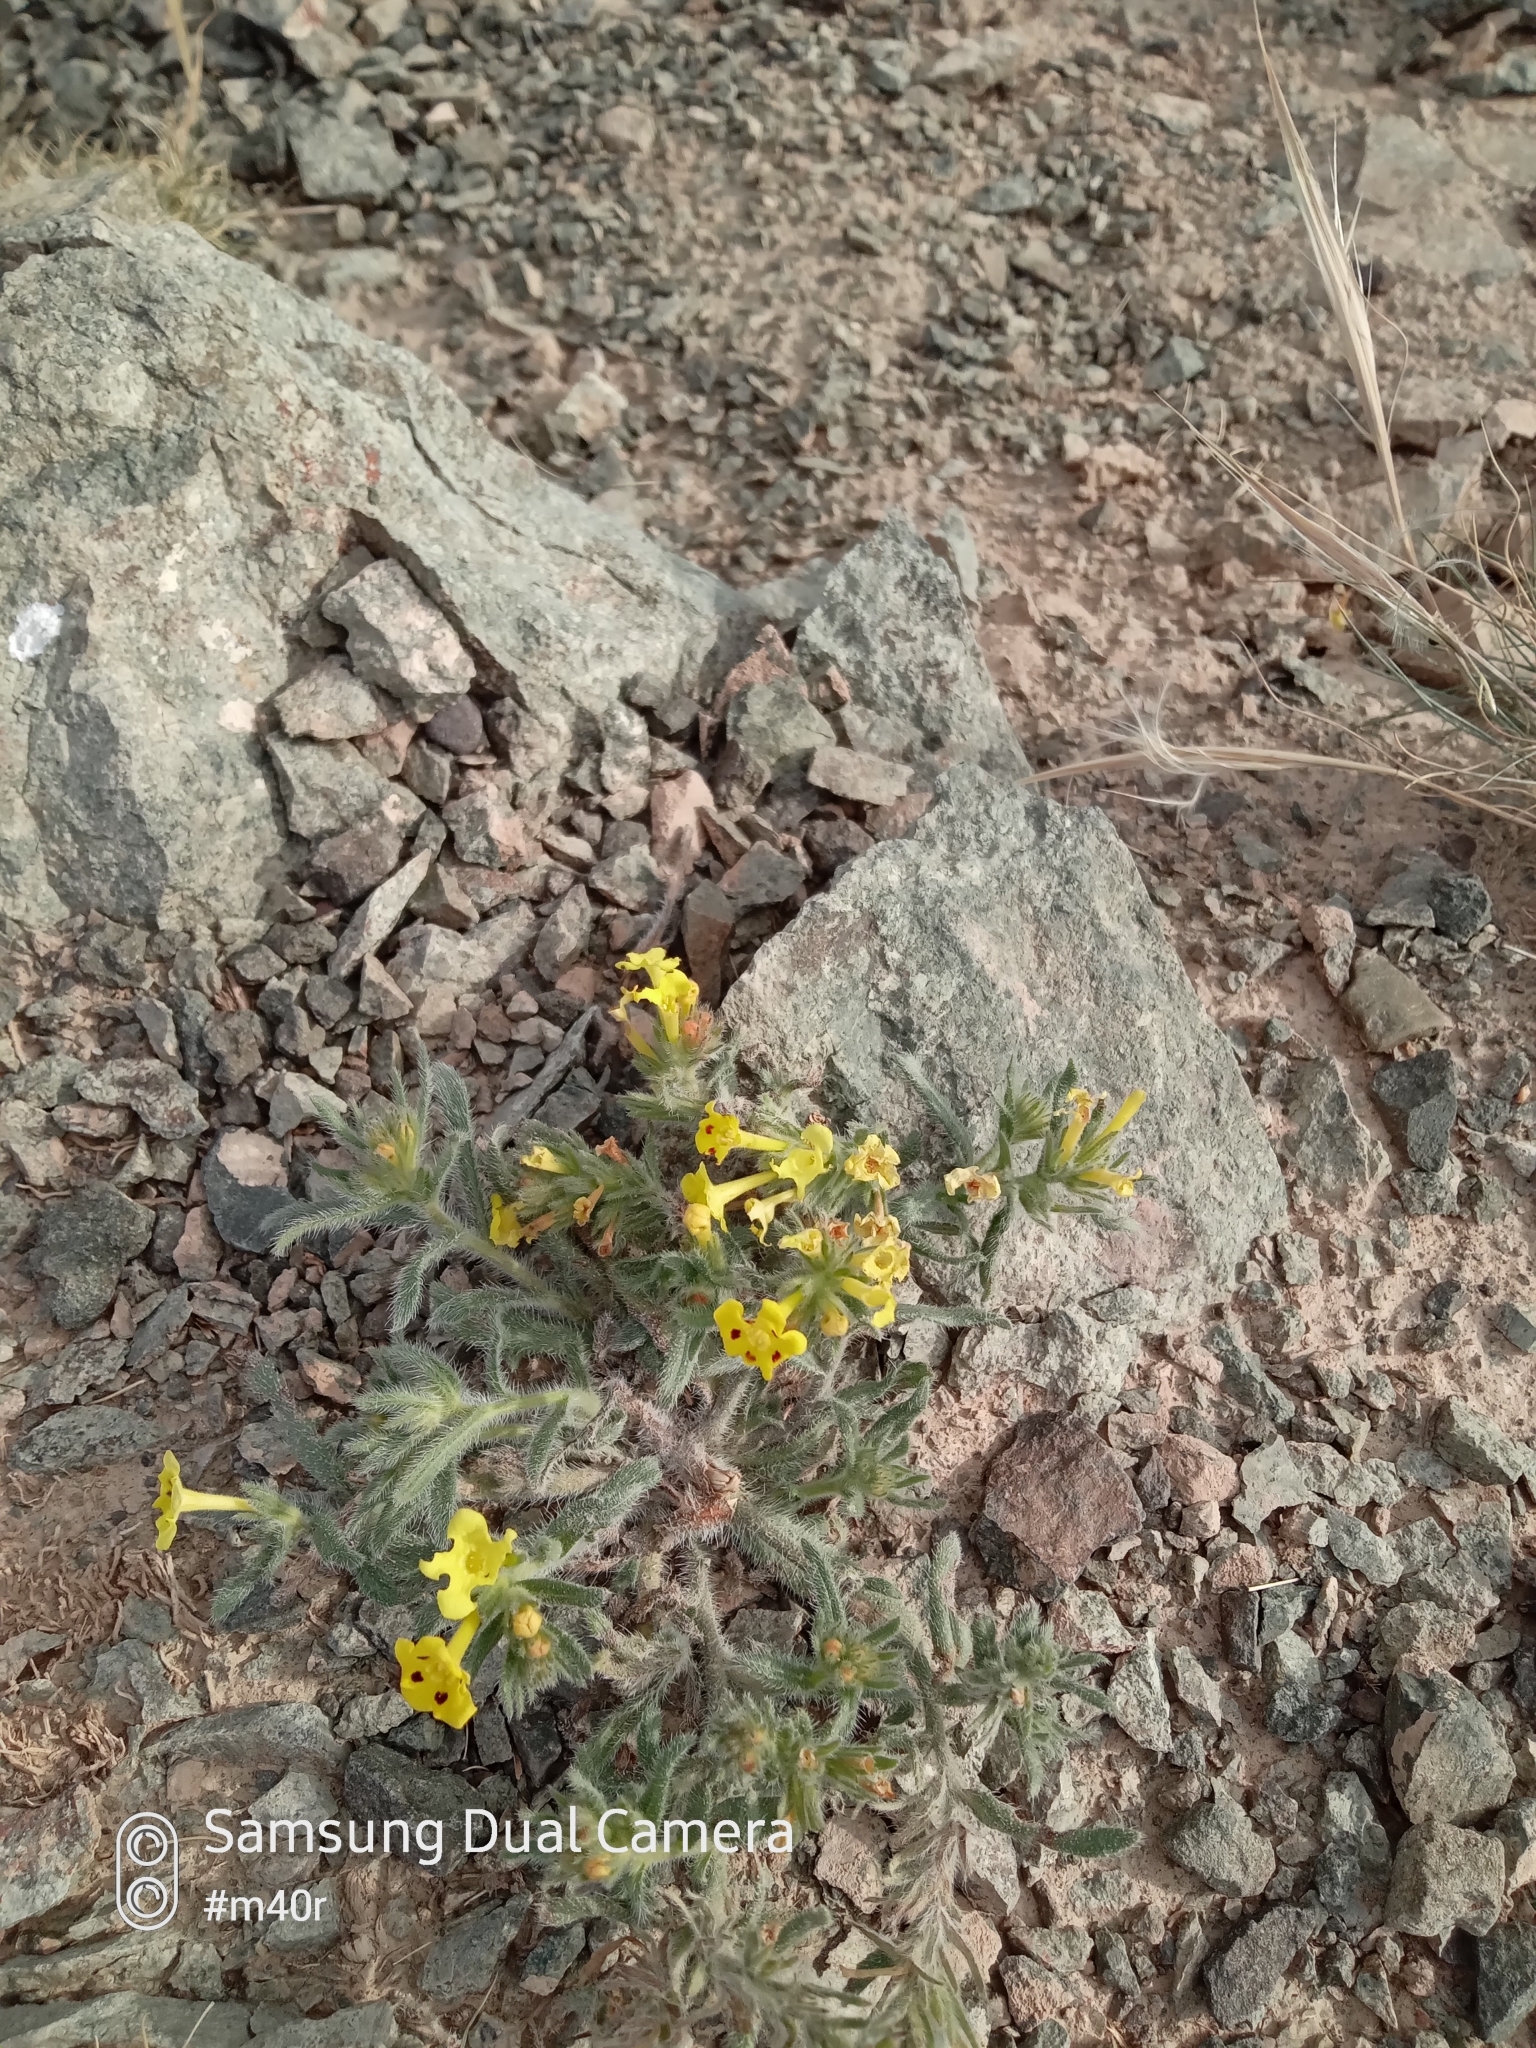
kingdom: Plantae
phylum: Tracheophyta
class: Magnoliopsida
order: Boraginales
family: Boraginaceae
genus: Arnebia
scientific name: Arnebia guttata
